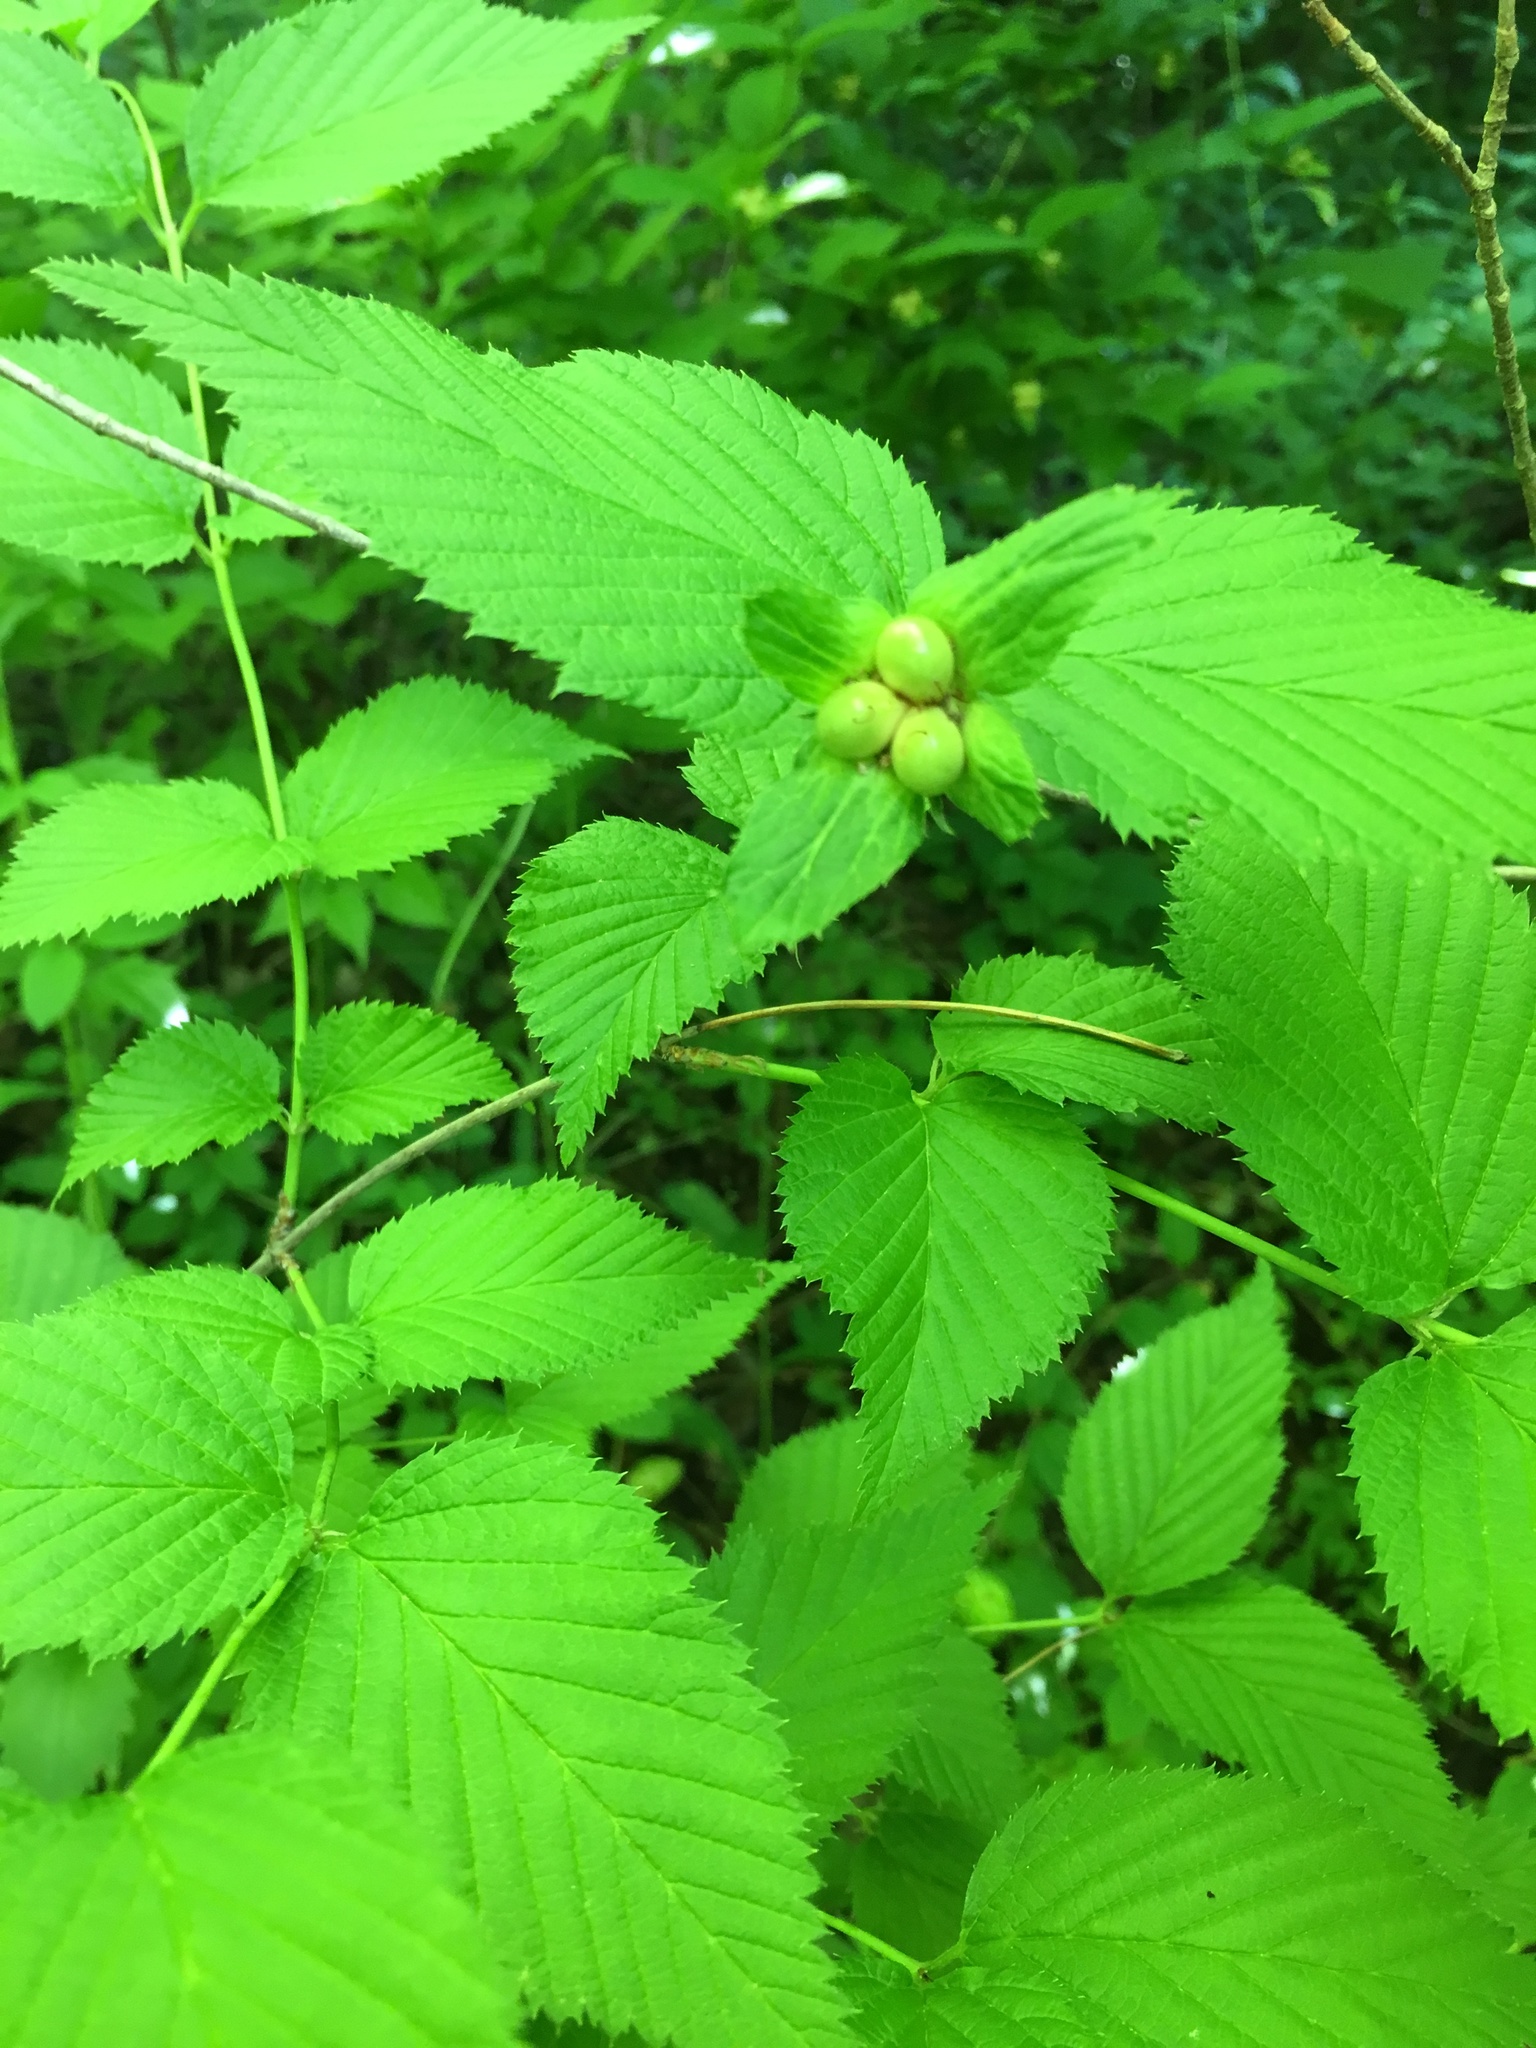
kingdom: Plantae
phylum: Tracheophyta
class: Magnoliopsida
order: Rosales
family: Rosaceae
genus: Rhodotypos
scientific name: Rhodotypos scandens
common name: Jetbead
